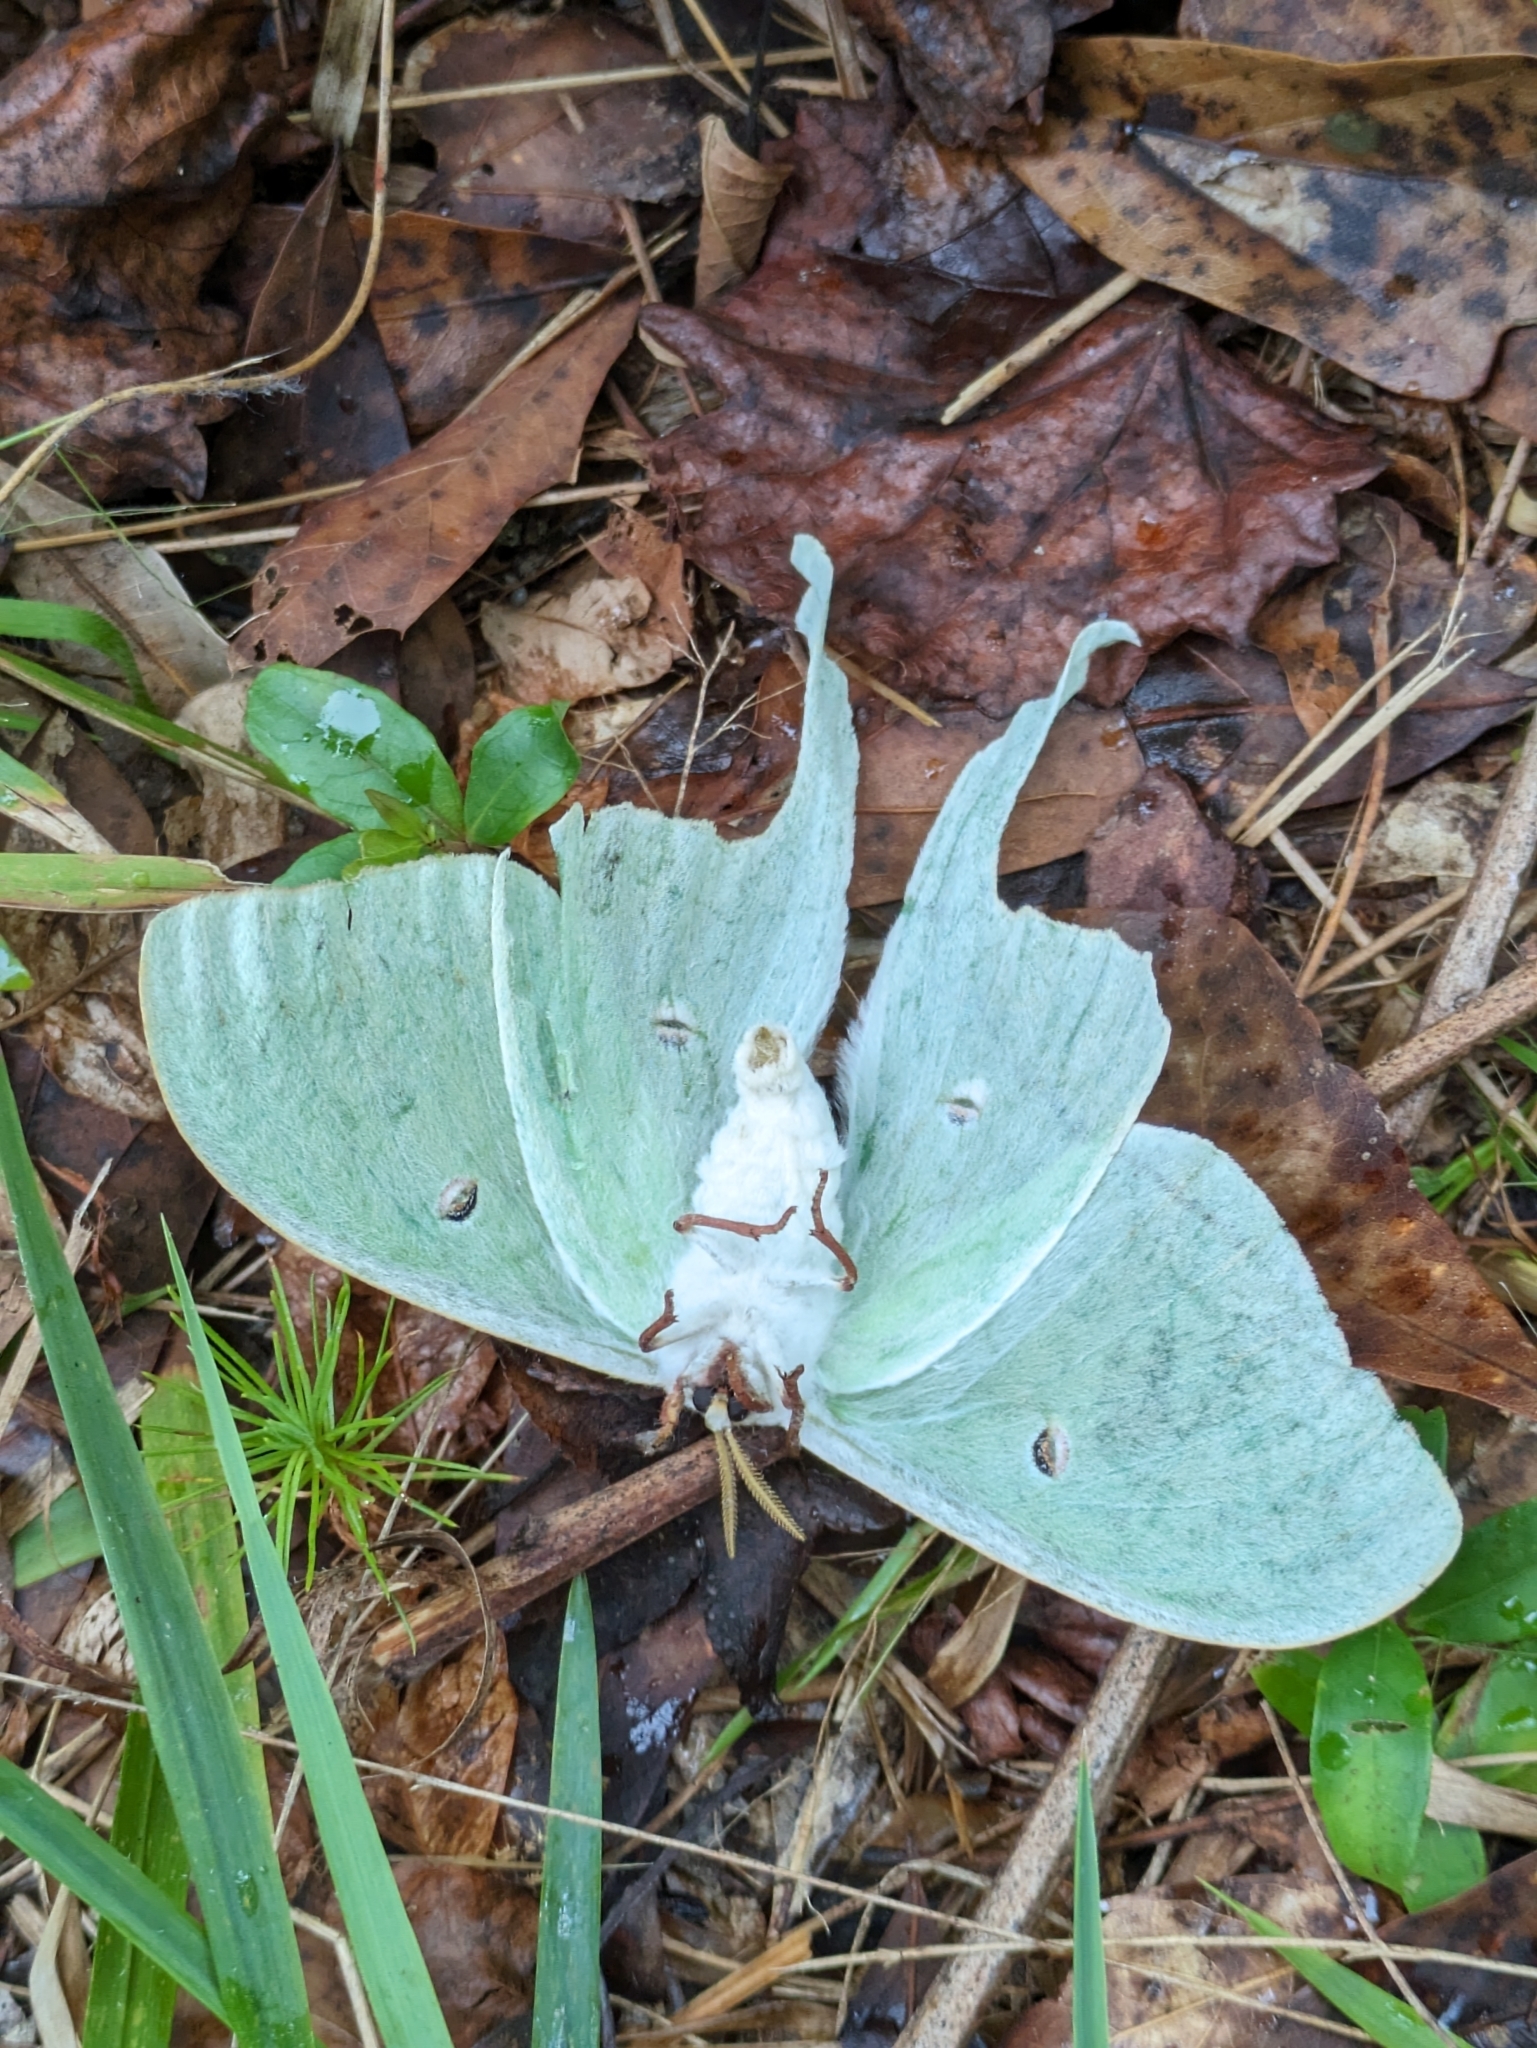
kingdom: Animalia
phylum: Arthropoda
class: Insecta
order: Lepidoptera
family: Saturniidae
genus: Actias
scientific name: Actias luna
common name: Luna moth
